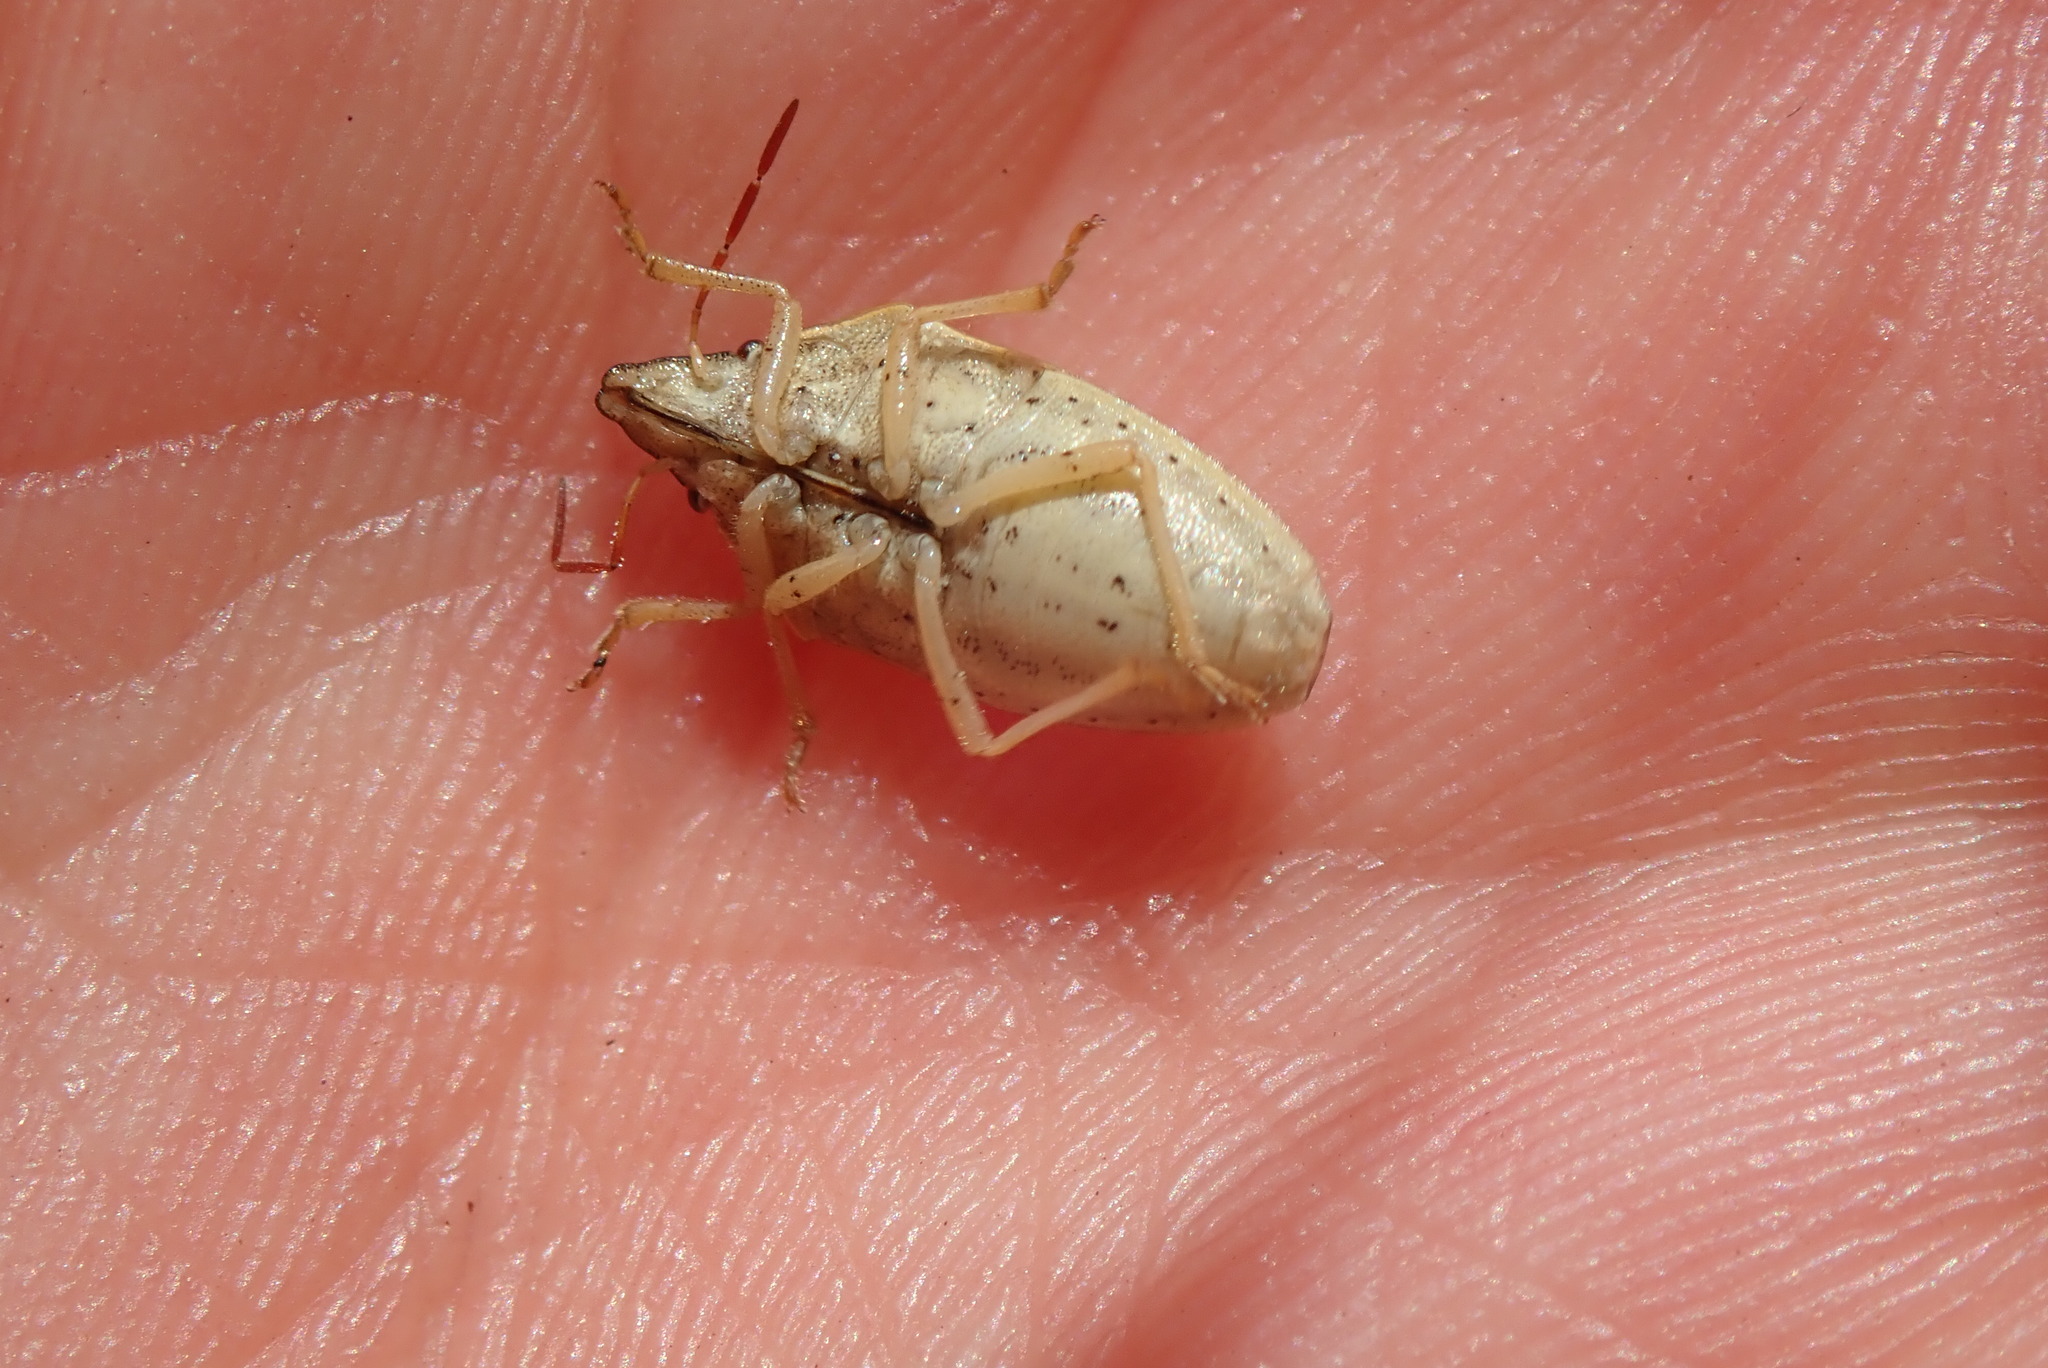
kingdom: Animalia
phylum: Arthropoda
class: Insecta
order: Hemiptera
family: Pentatomidae
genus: Aelia
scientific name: Aelia acuminata
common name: Bishop's mitre
